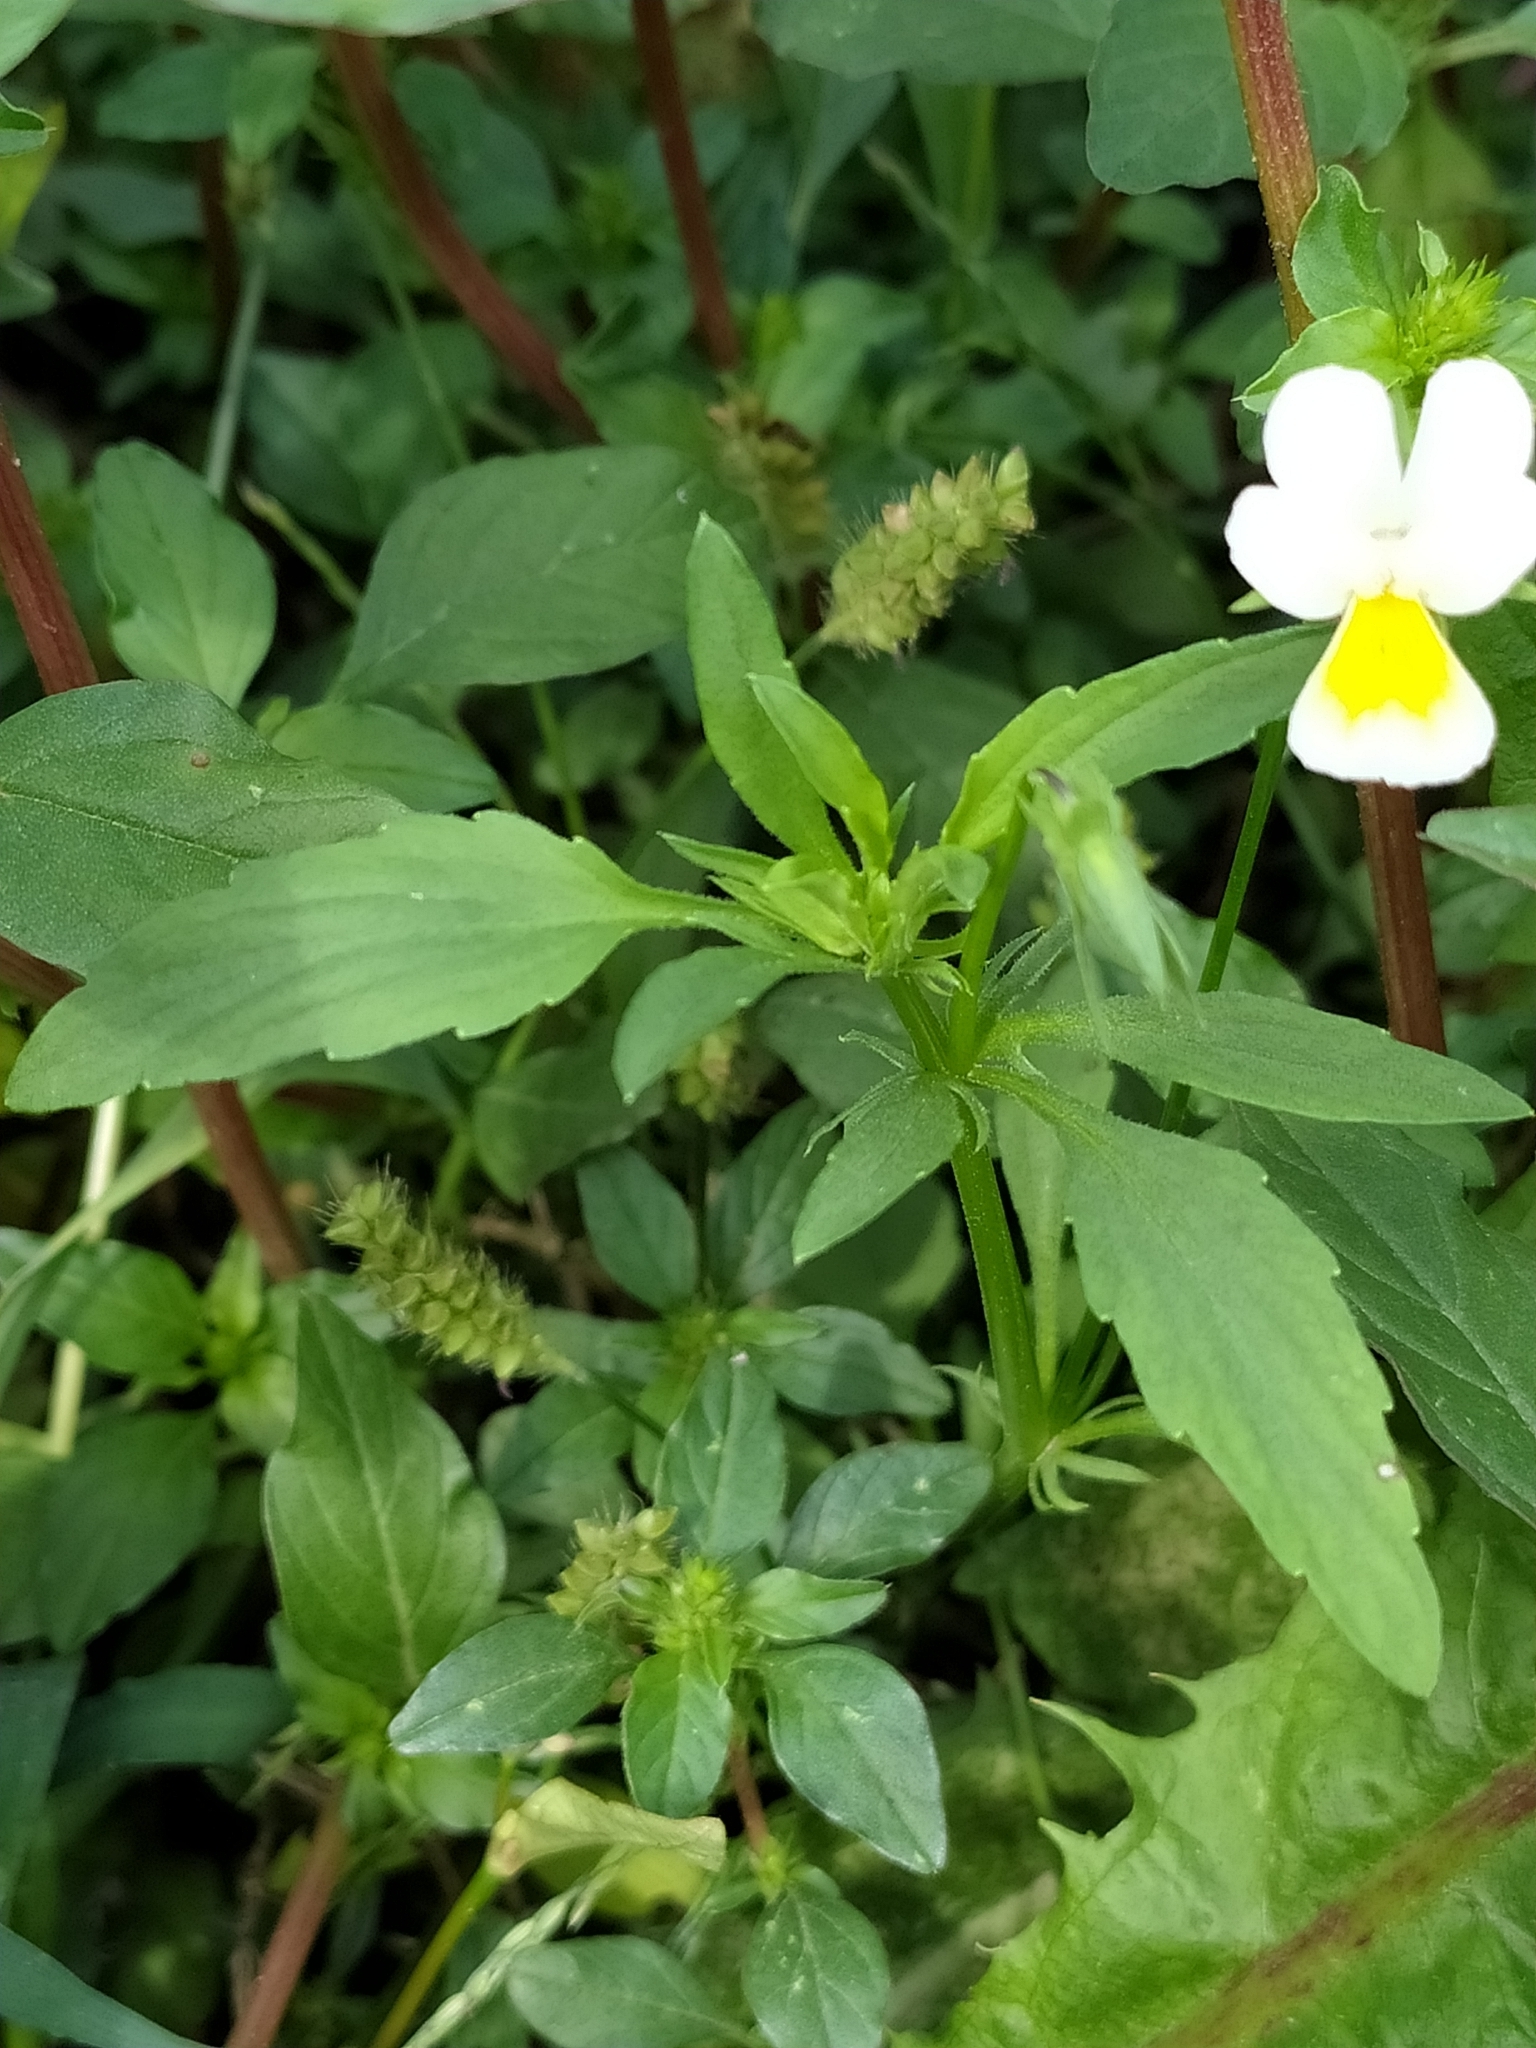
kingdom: Plantae
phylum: Tracheophyta
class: Magnoliopsida
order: Malpighiales
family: Violaceae
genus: Viola
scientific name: Viola arvensis
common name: Field pansy
